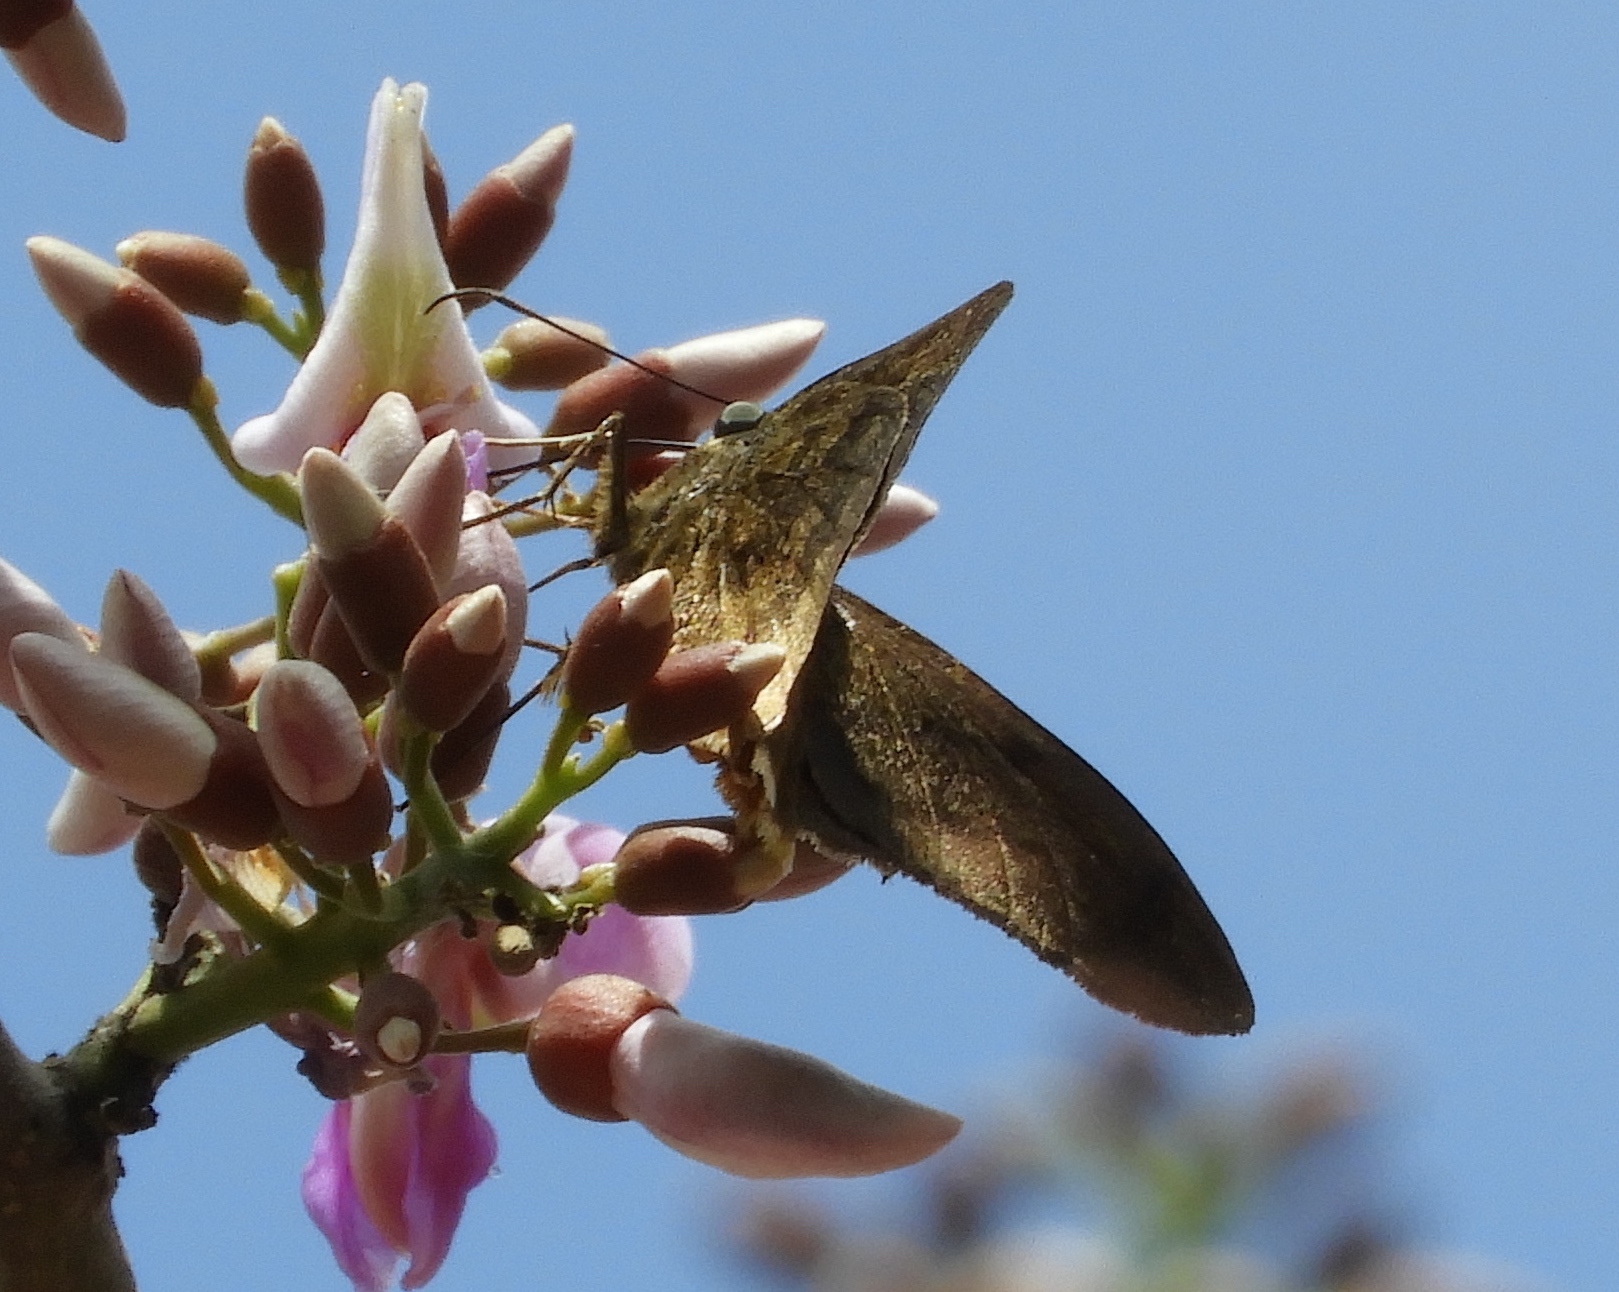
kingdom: Animalia
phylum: Arthropoda
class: Insecta
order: Lepidoptera
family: Hesperiidae
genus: Astraptes
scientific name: Astraptes anaphus
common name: Yellow-tipped flasher
